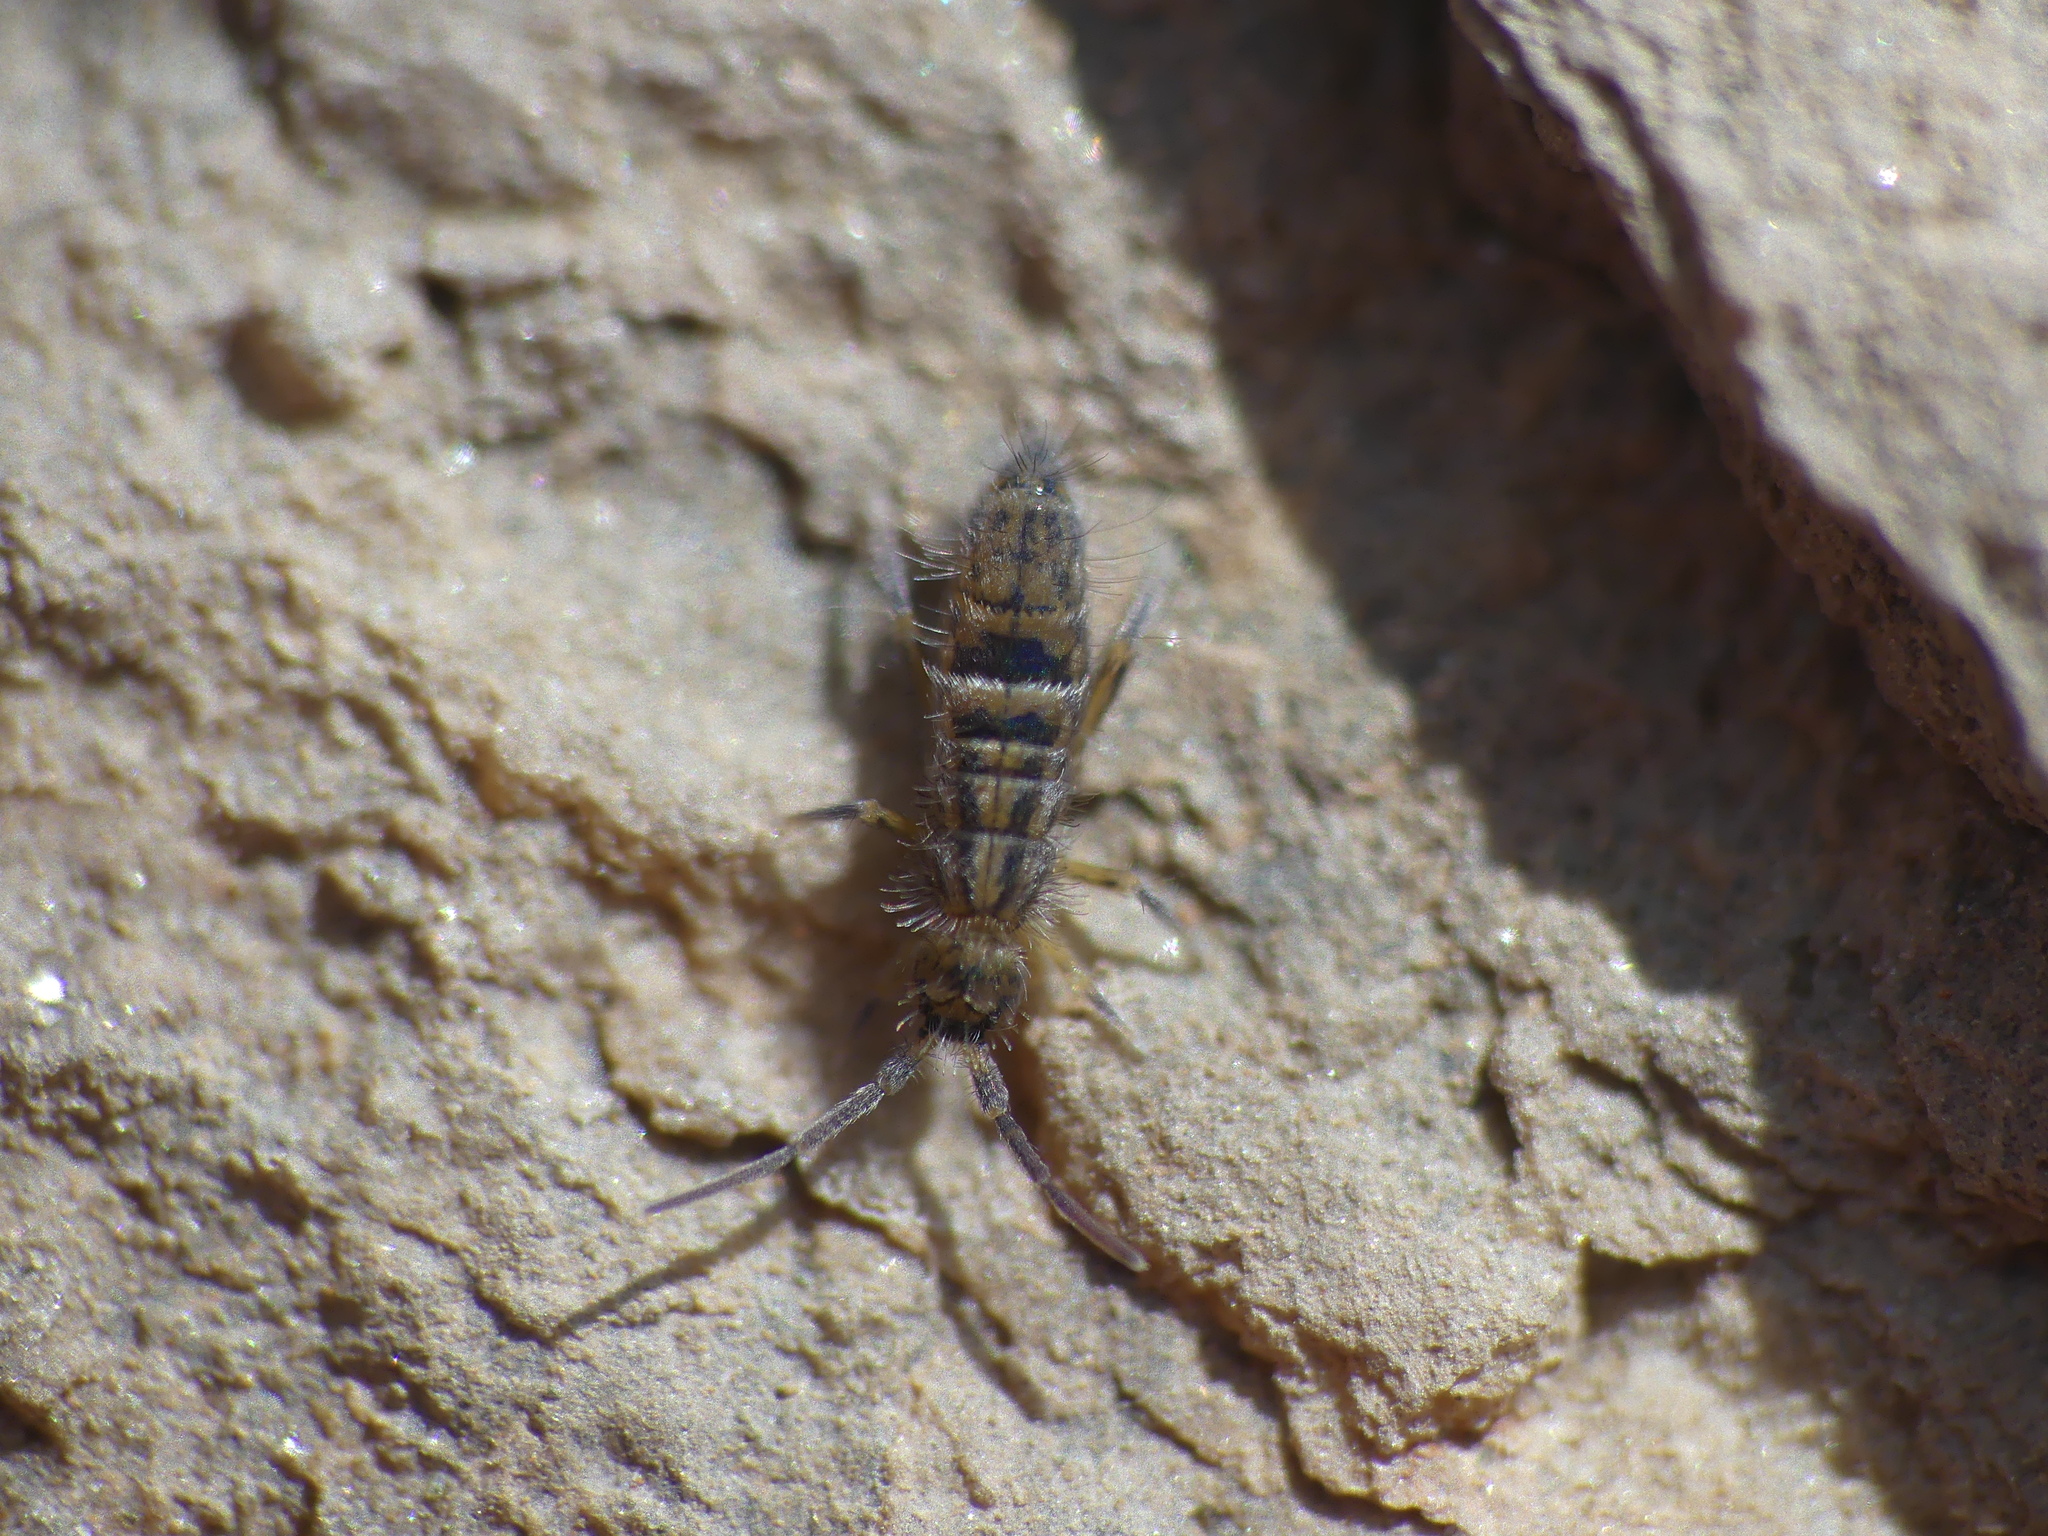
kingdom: Animalia
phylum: Arthropoda
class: Collembola
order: Entomobryomorpha
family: Orchesellidae
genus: Orchesella
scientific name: Orchesella alticola
